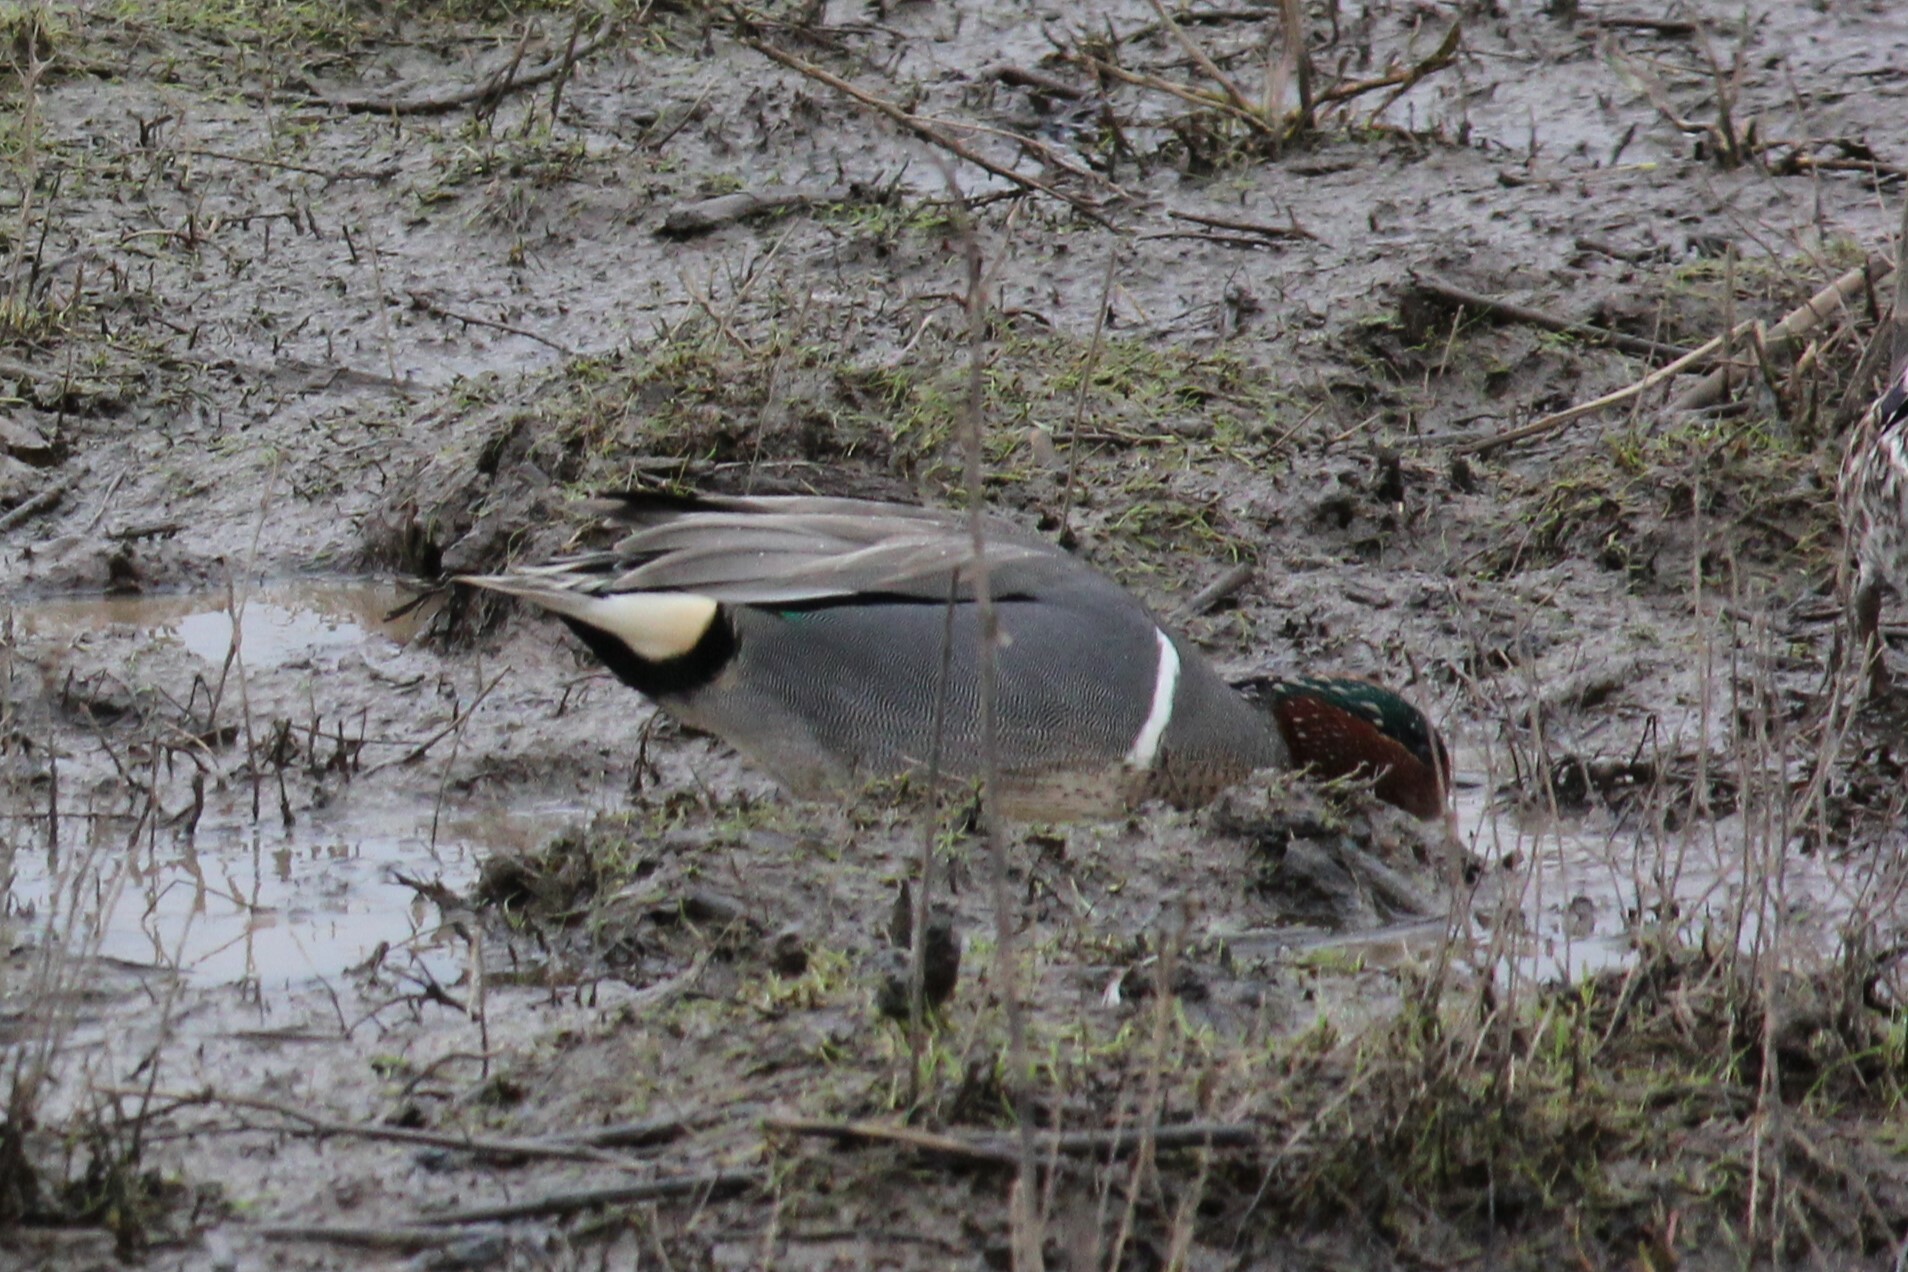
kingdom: Animalia
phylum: Chordata
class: Aves
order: Anseriformes
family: Anatidae
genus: Anas
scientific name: Anas crecca
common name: Eurasian teal
